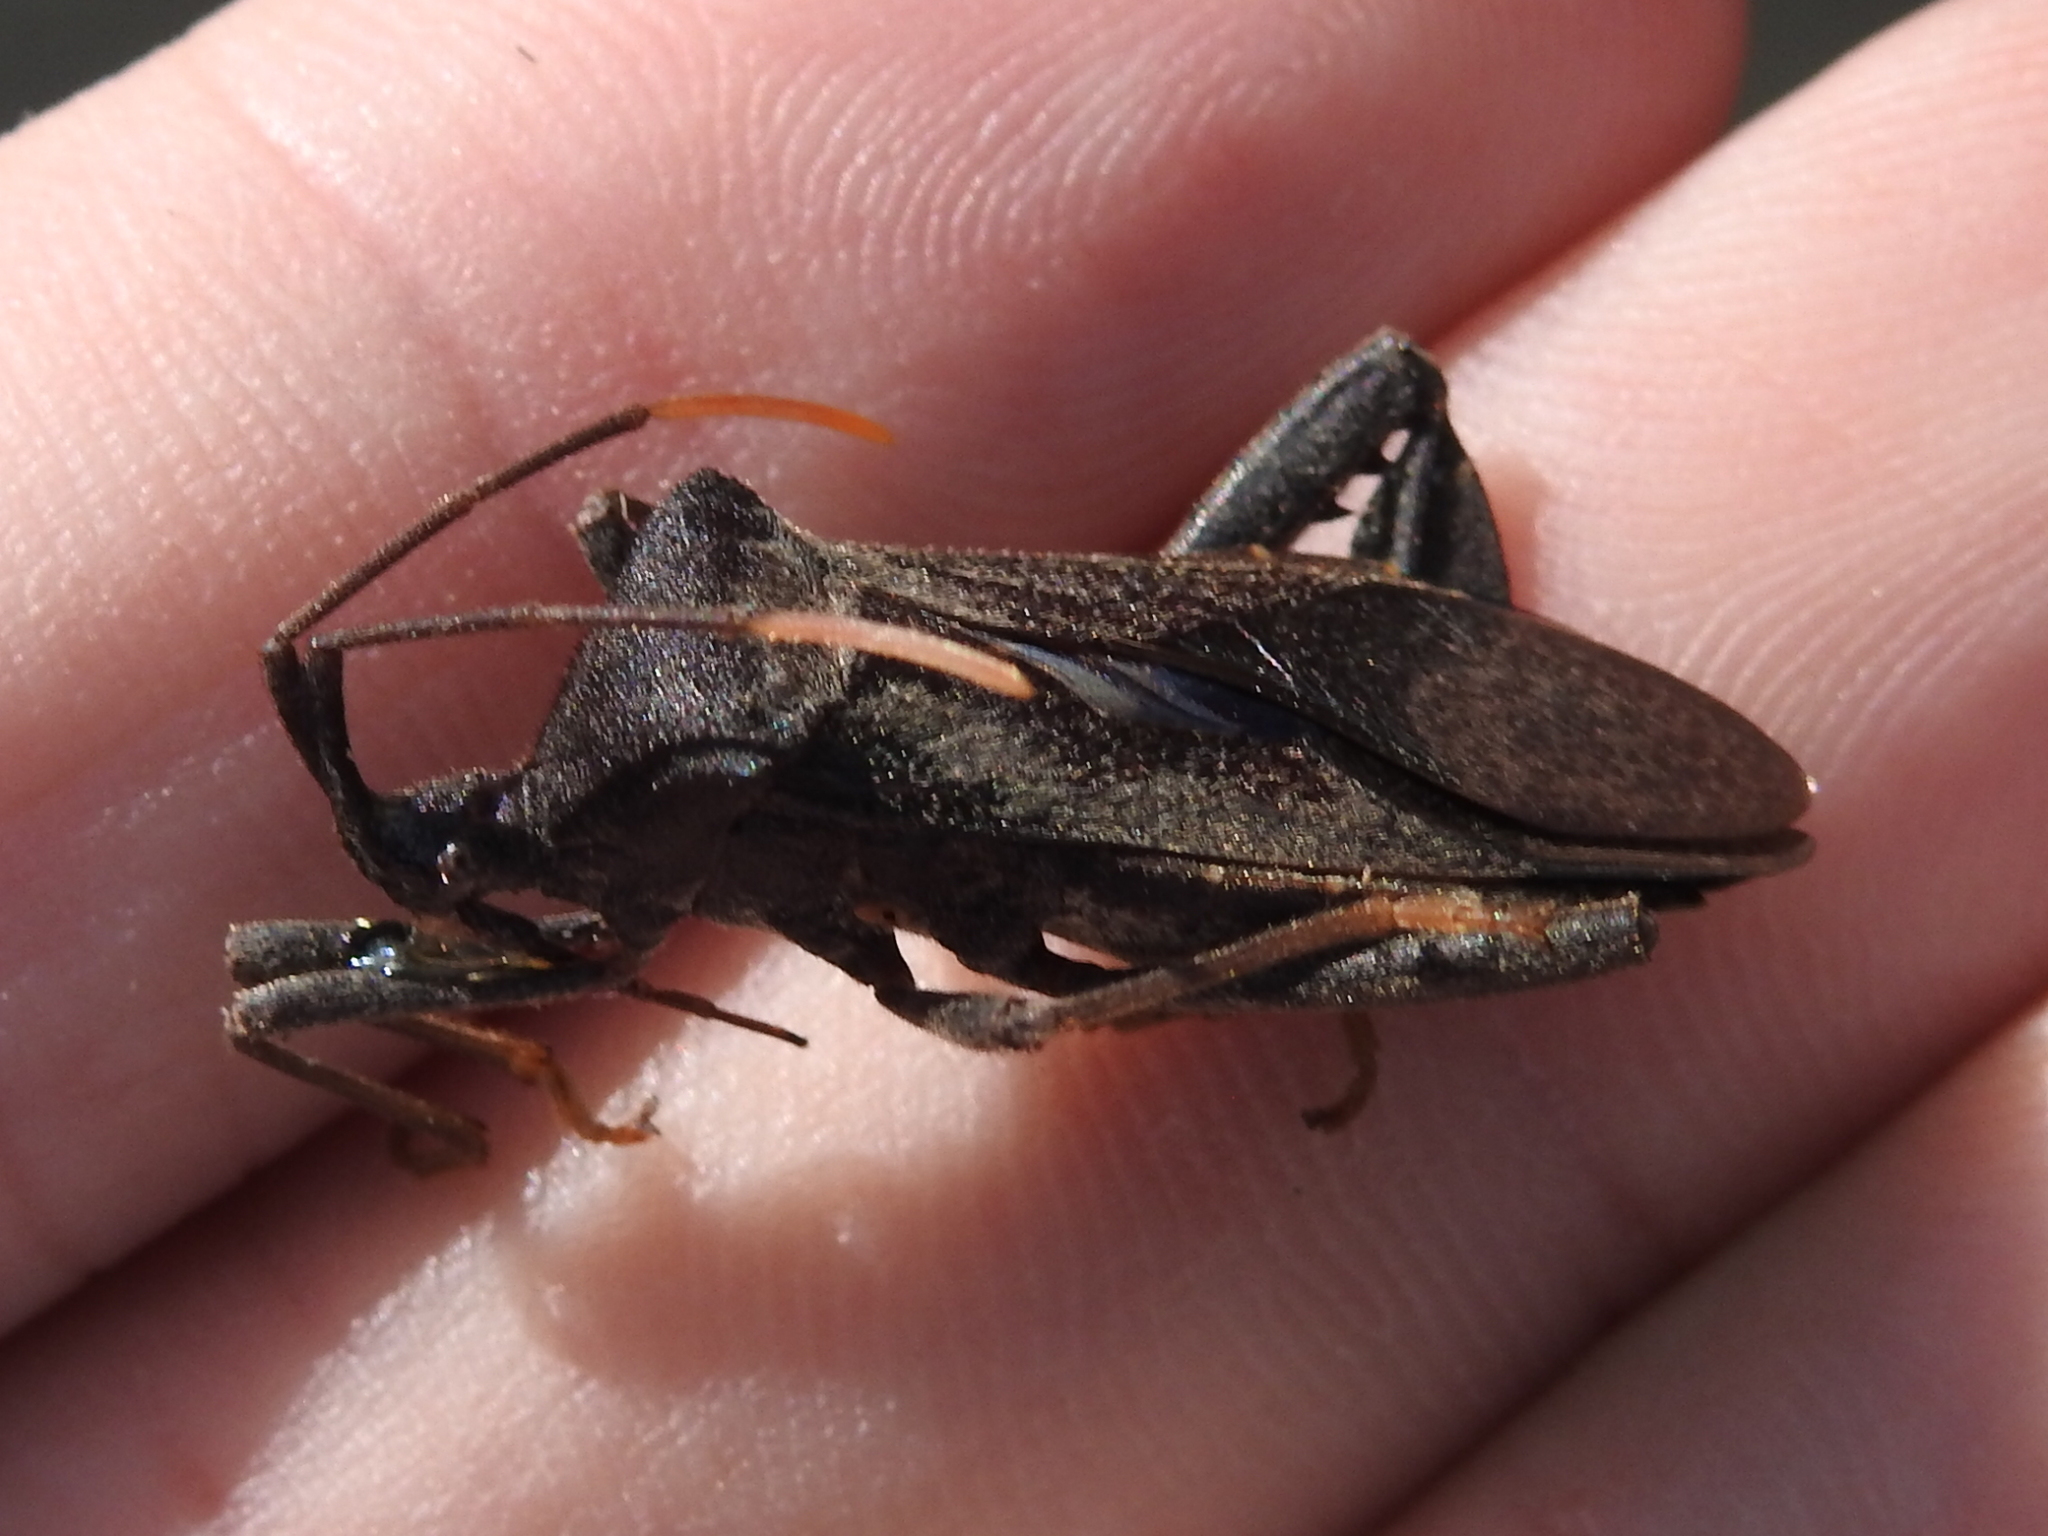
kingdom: Animalia
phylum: Arthropoda
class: Insecta
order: Hemiptera
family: Coreidae
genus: Acanthocephala
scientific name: Acanthocephala terminalis
